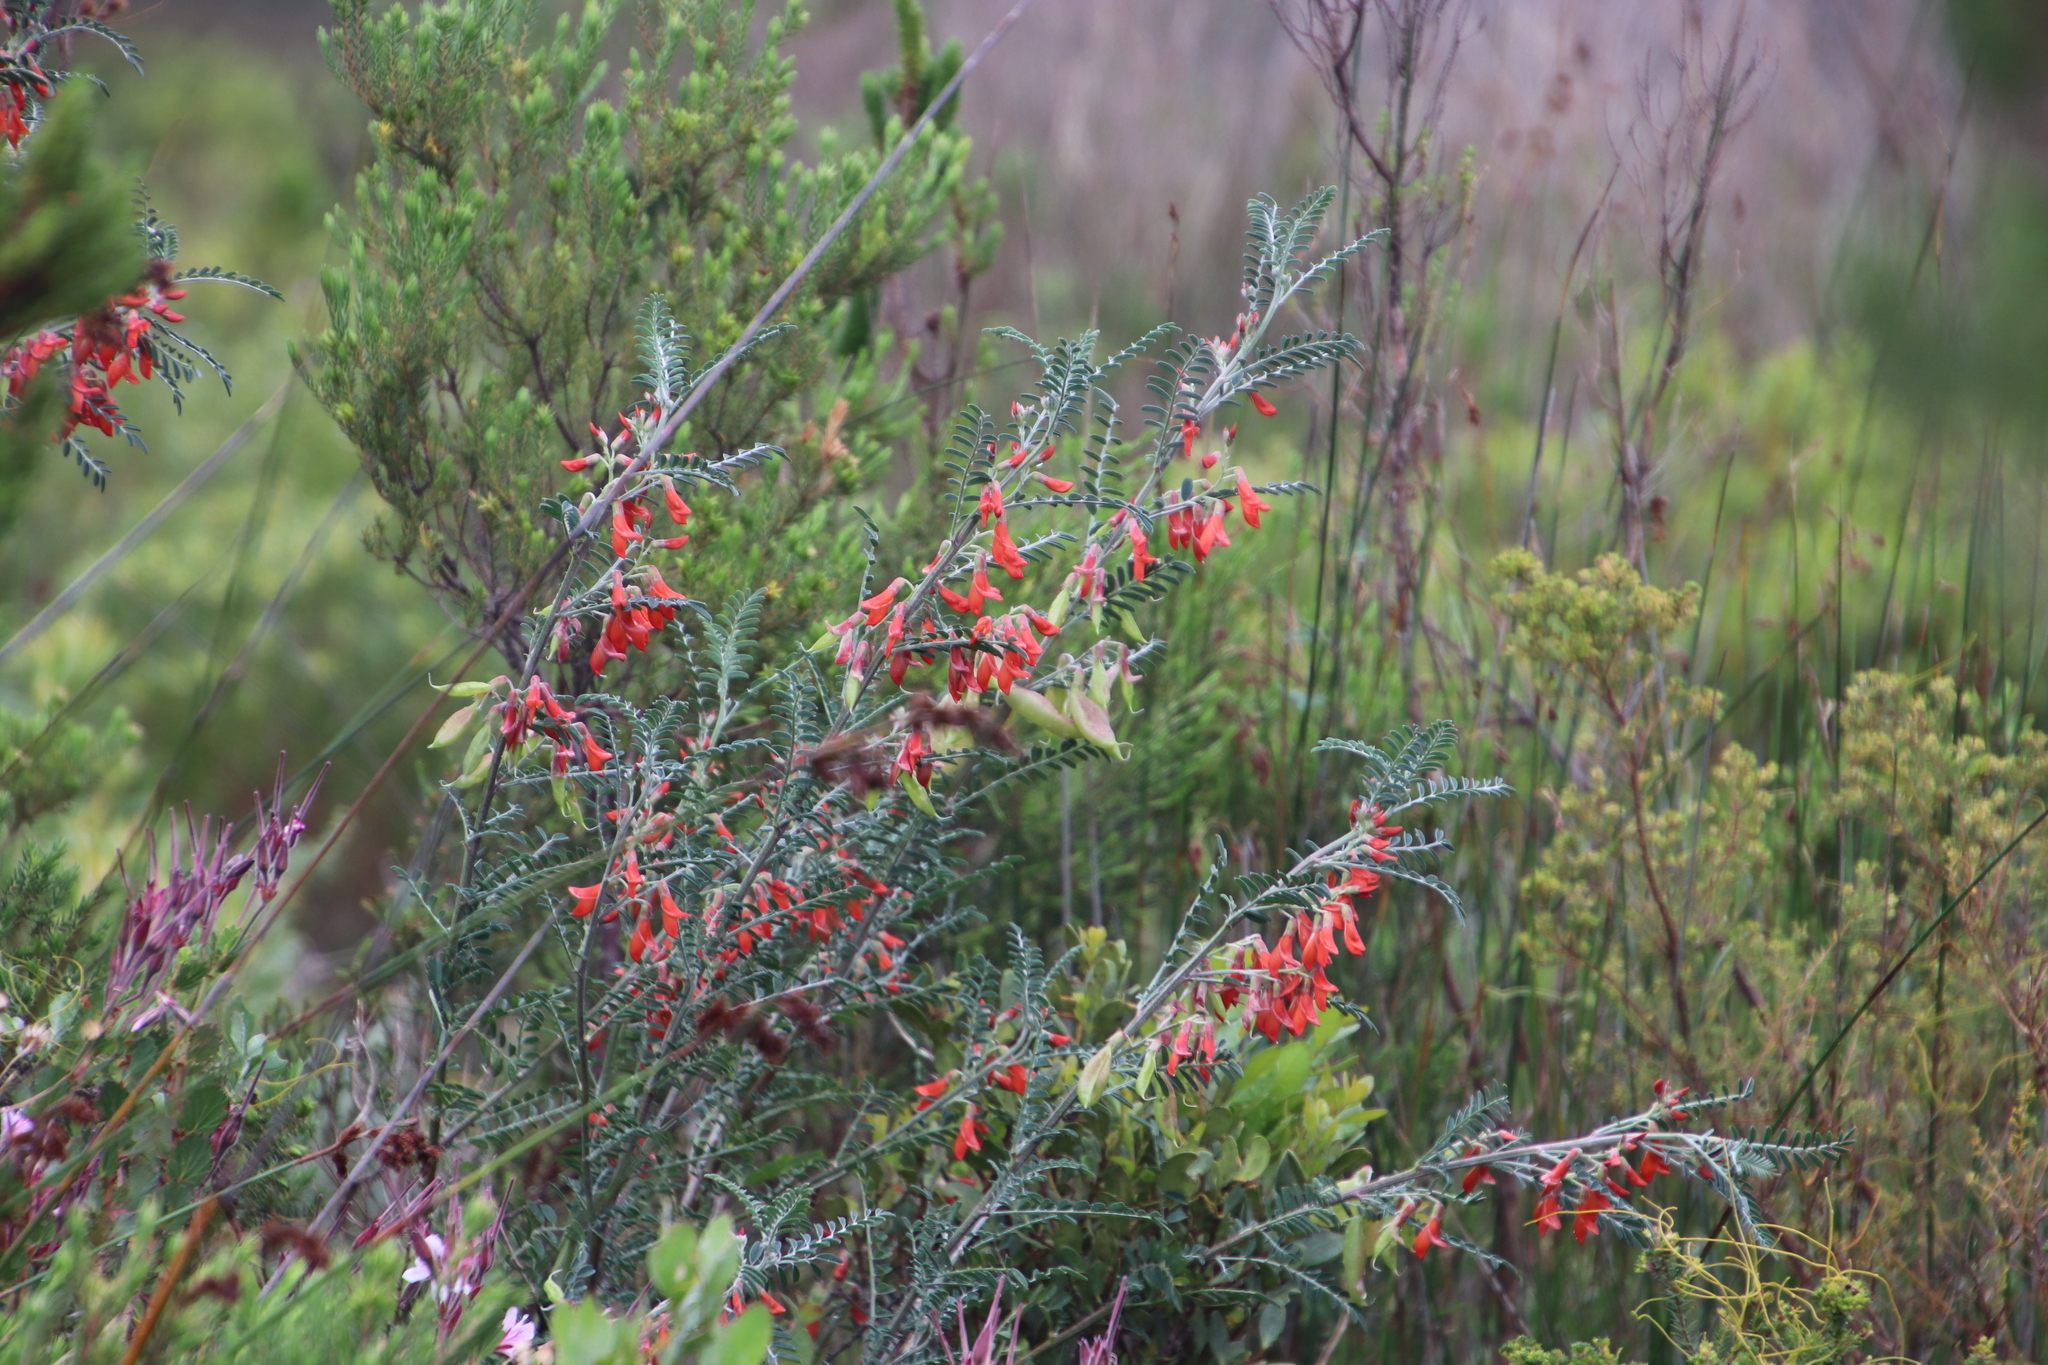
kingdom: Plantae
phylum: Tracheophyta
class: Magnoliopsida
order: Fabales
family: Fabaceae
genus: Lessertia
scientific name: Lessertia frutescens
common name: Balloon-pea
